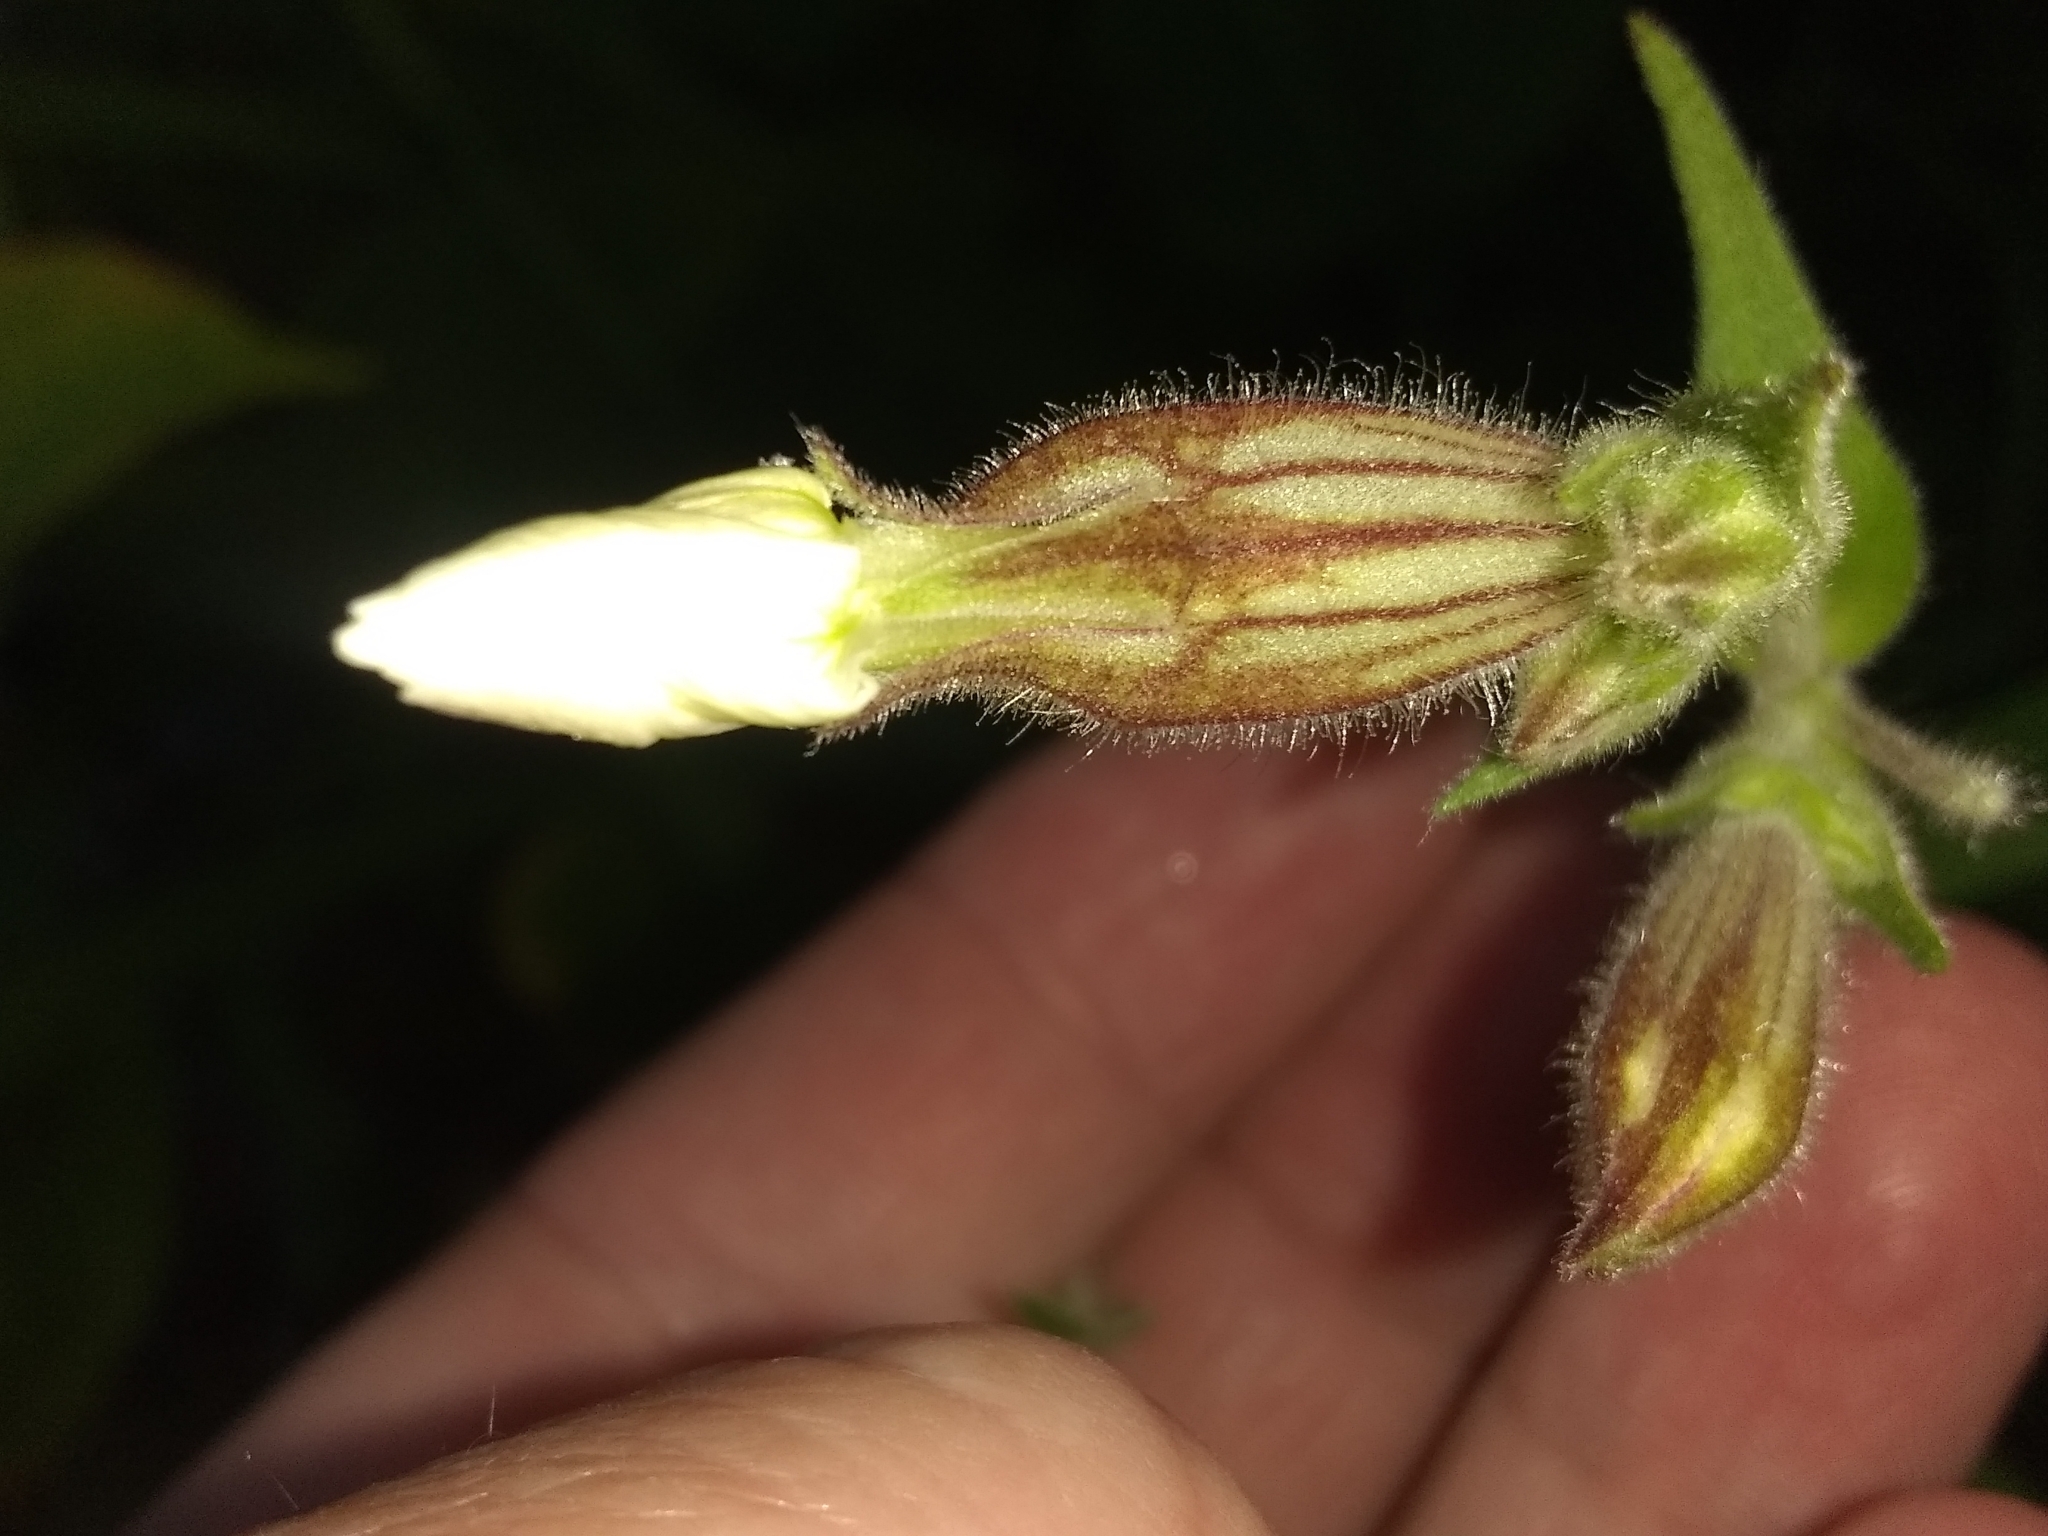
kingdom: Plantae
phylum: Tracheophyta
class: Magnoliopsida
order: Caryophyllales
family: Caryophyllaceae
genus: Silene
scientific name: Silene latifolia
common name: White campion
